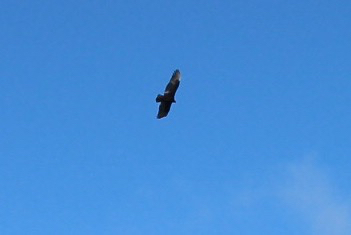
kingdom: Animalia
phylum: Chordata
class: Aves
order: Accipitriformes
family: Cathartidae
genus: Cathartes
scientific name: Cathartes aura
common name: Turkey vulture
